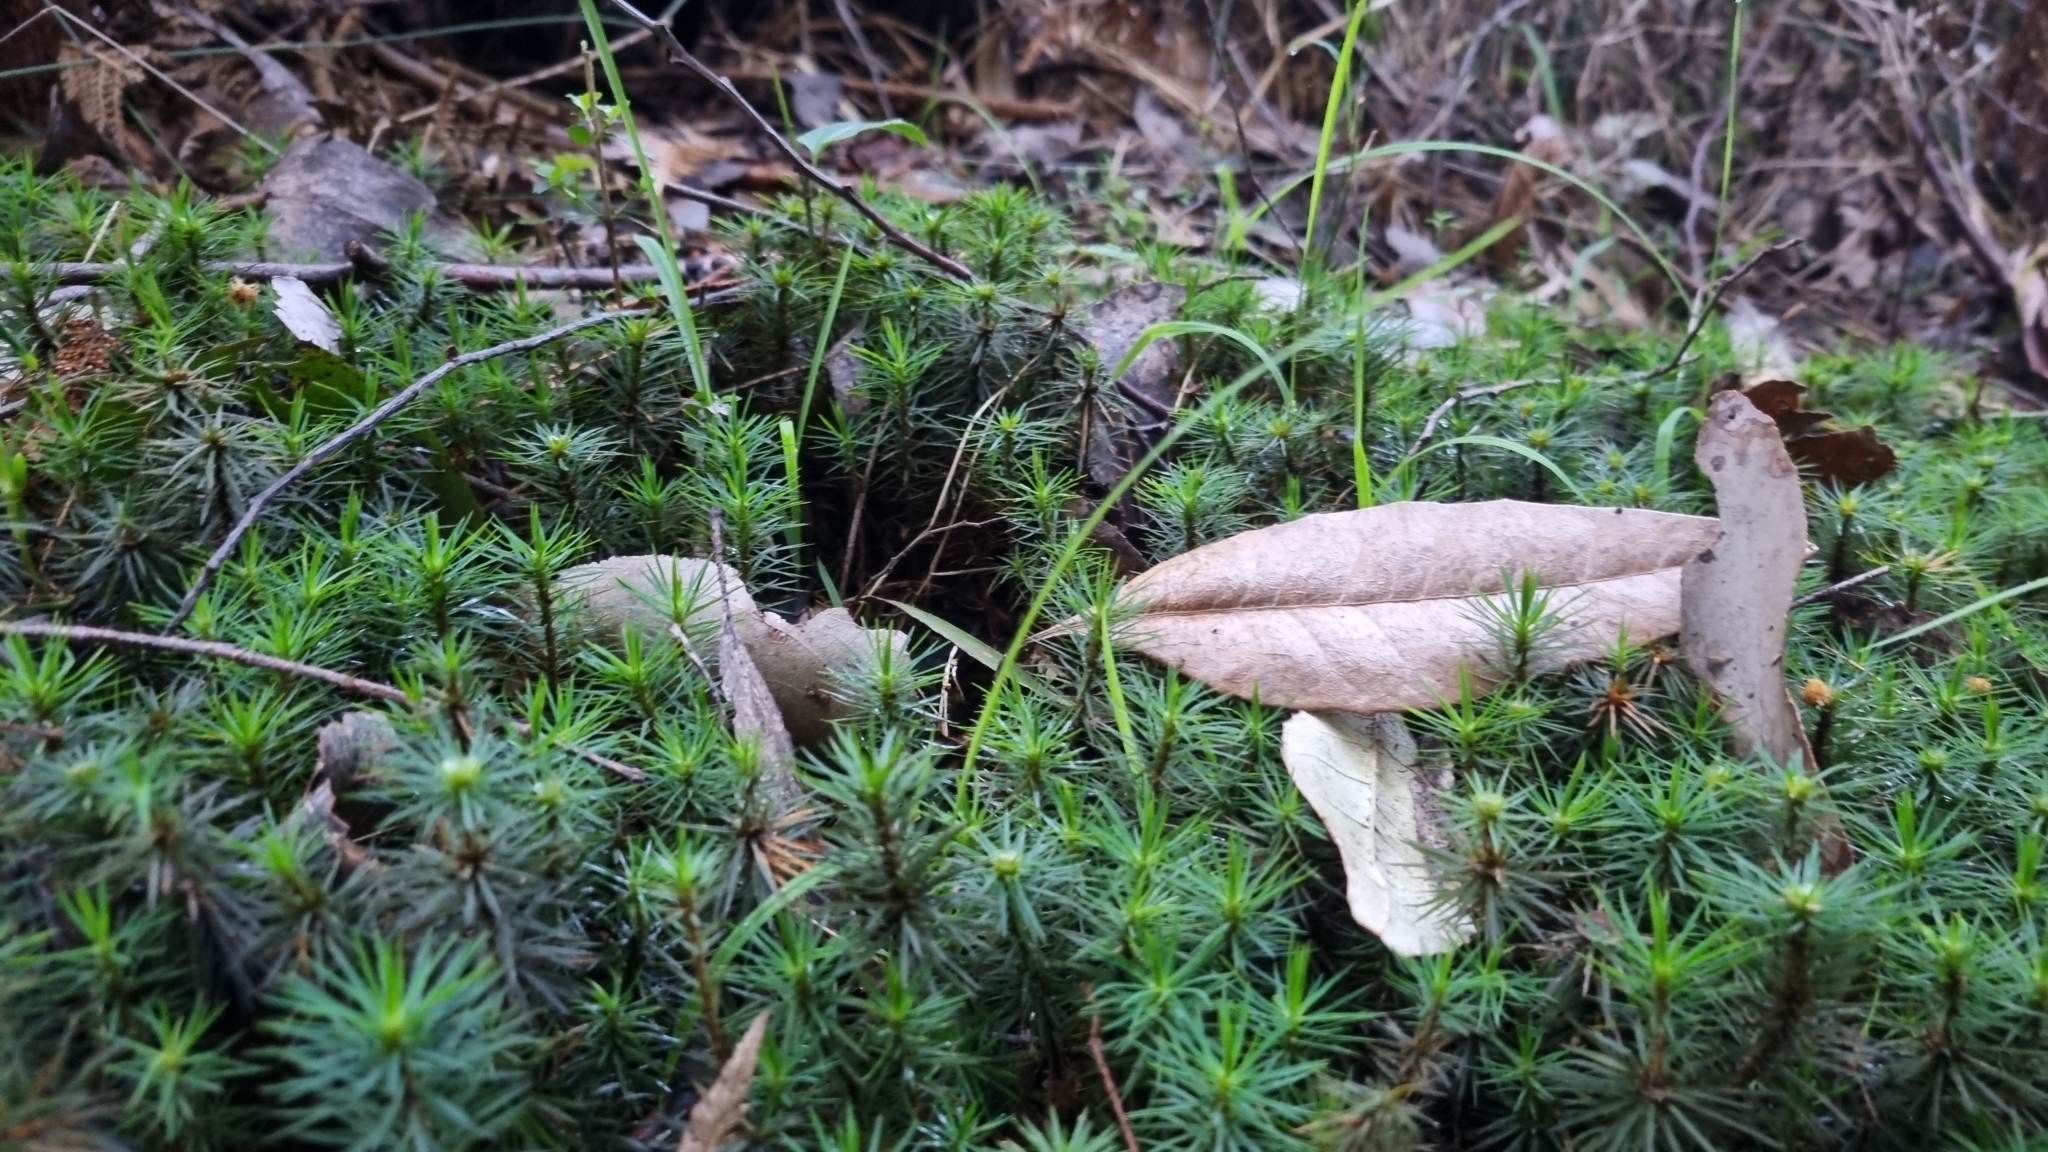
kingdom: Plantae
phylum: Bryophyta
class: Polytrichopsida
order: Polytrichales
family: Polytrichaceae
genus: Dawsonia
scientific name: Dawsonia superba
